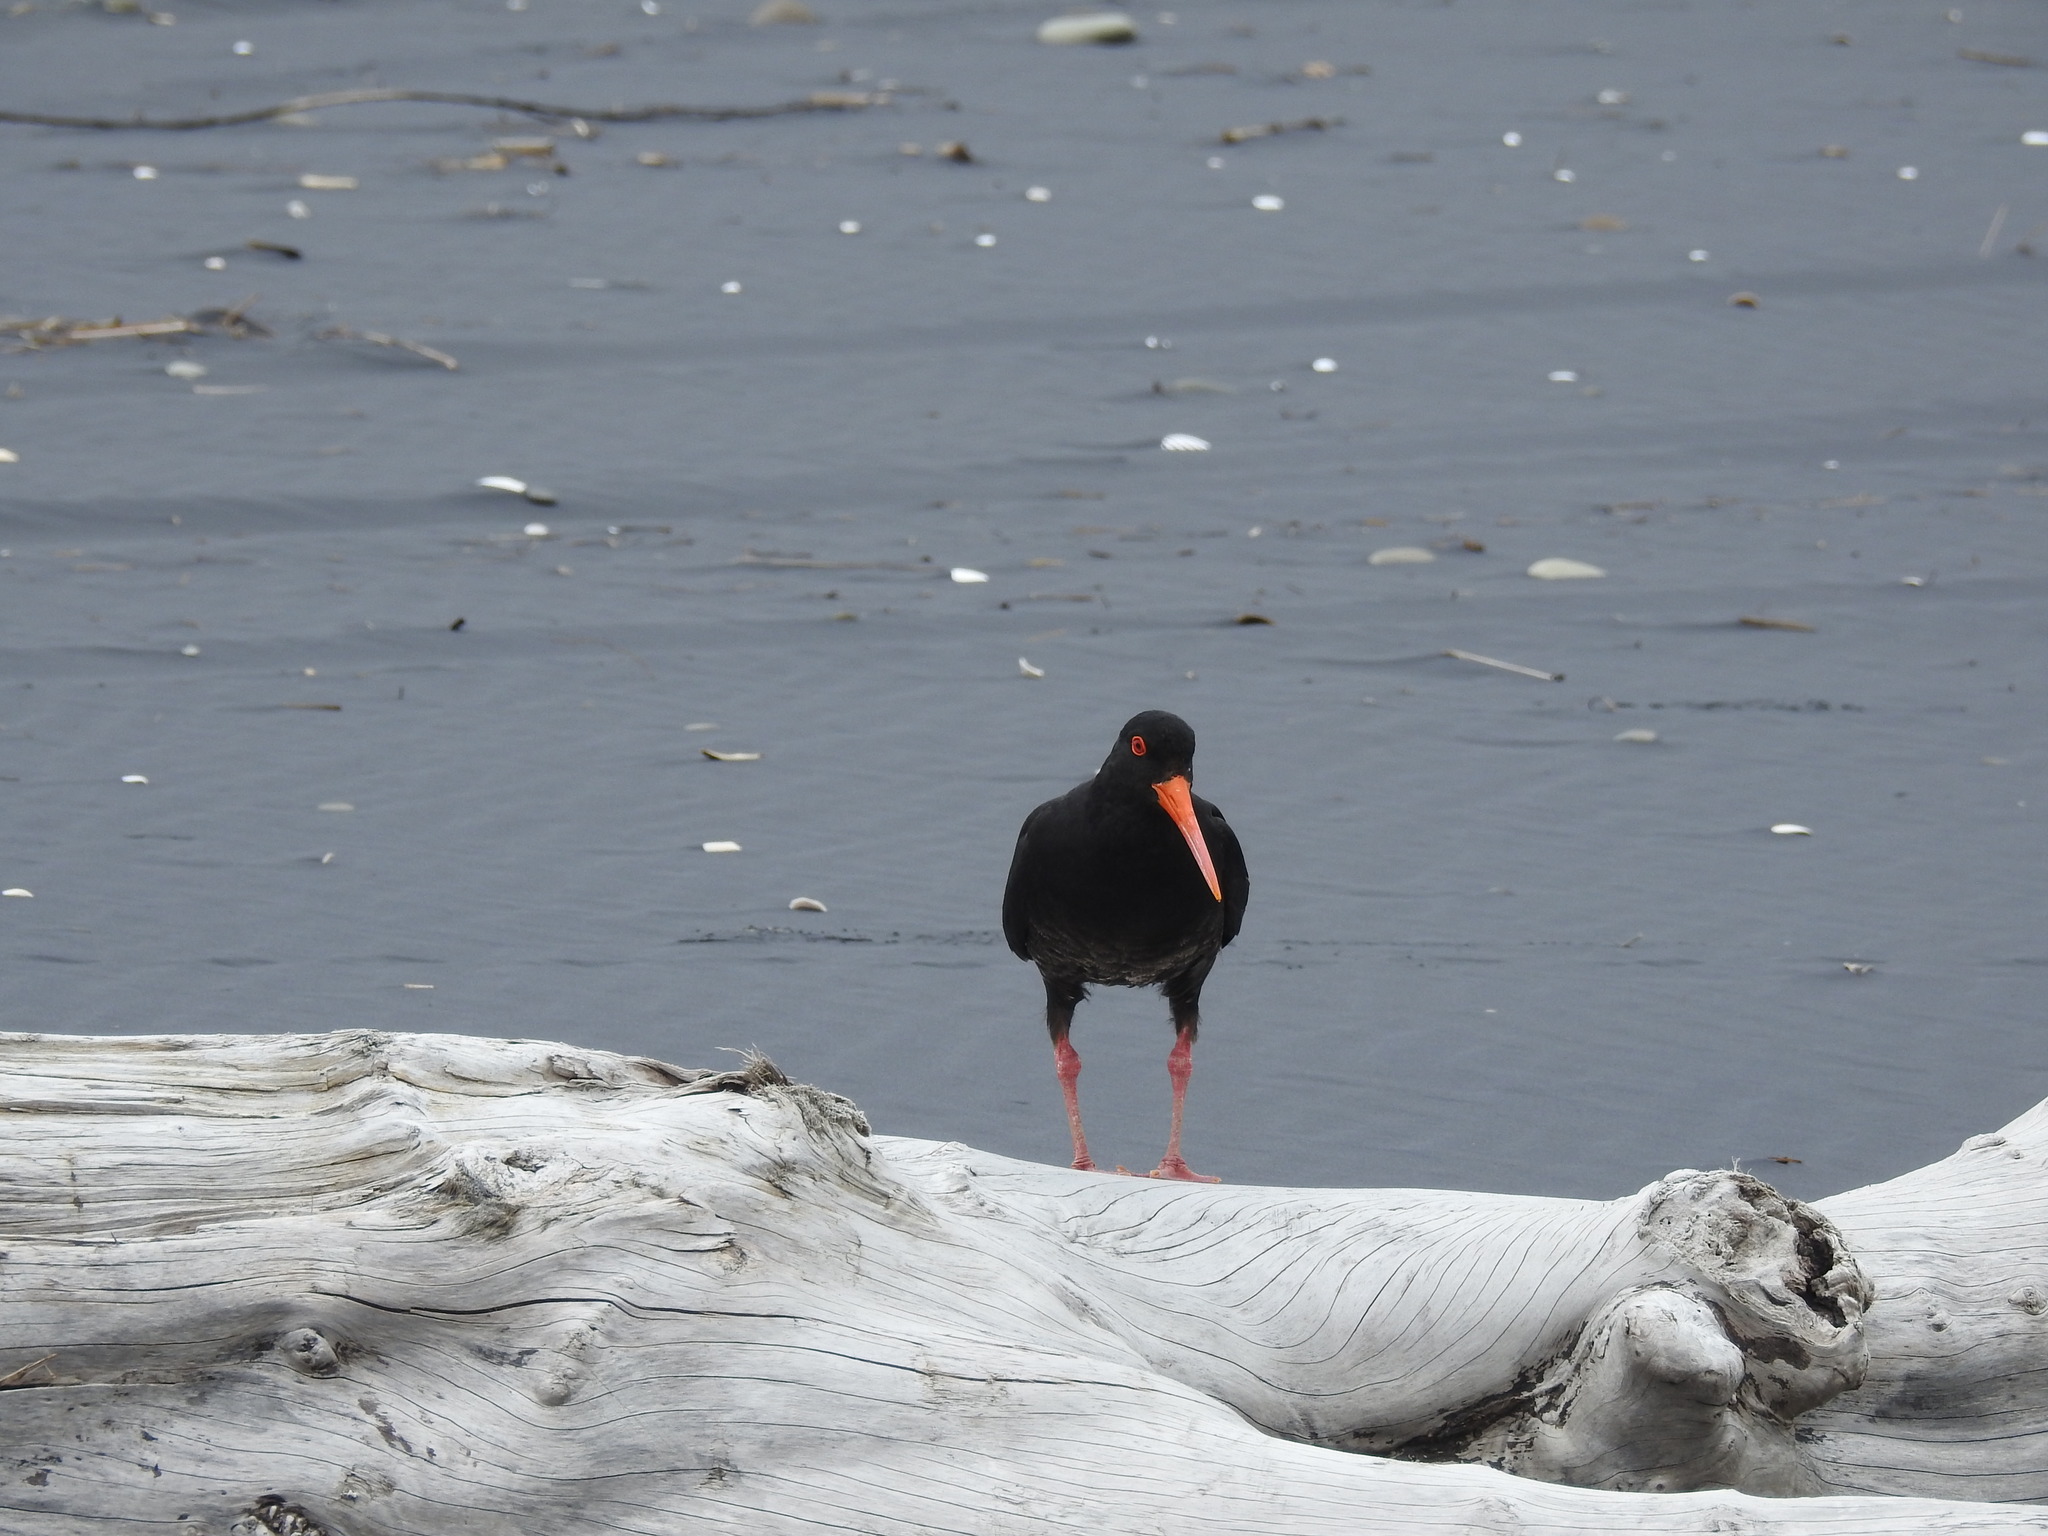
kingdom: Animalia
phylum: Chordata
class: Aves
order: Charadriiformes
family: Haematopodidae
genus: Haematopus
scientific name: Haematopus unicolor
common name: Variable oystercatcher
